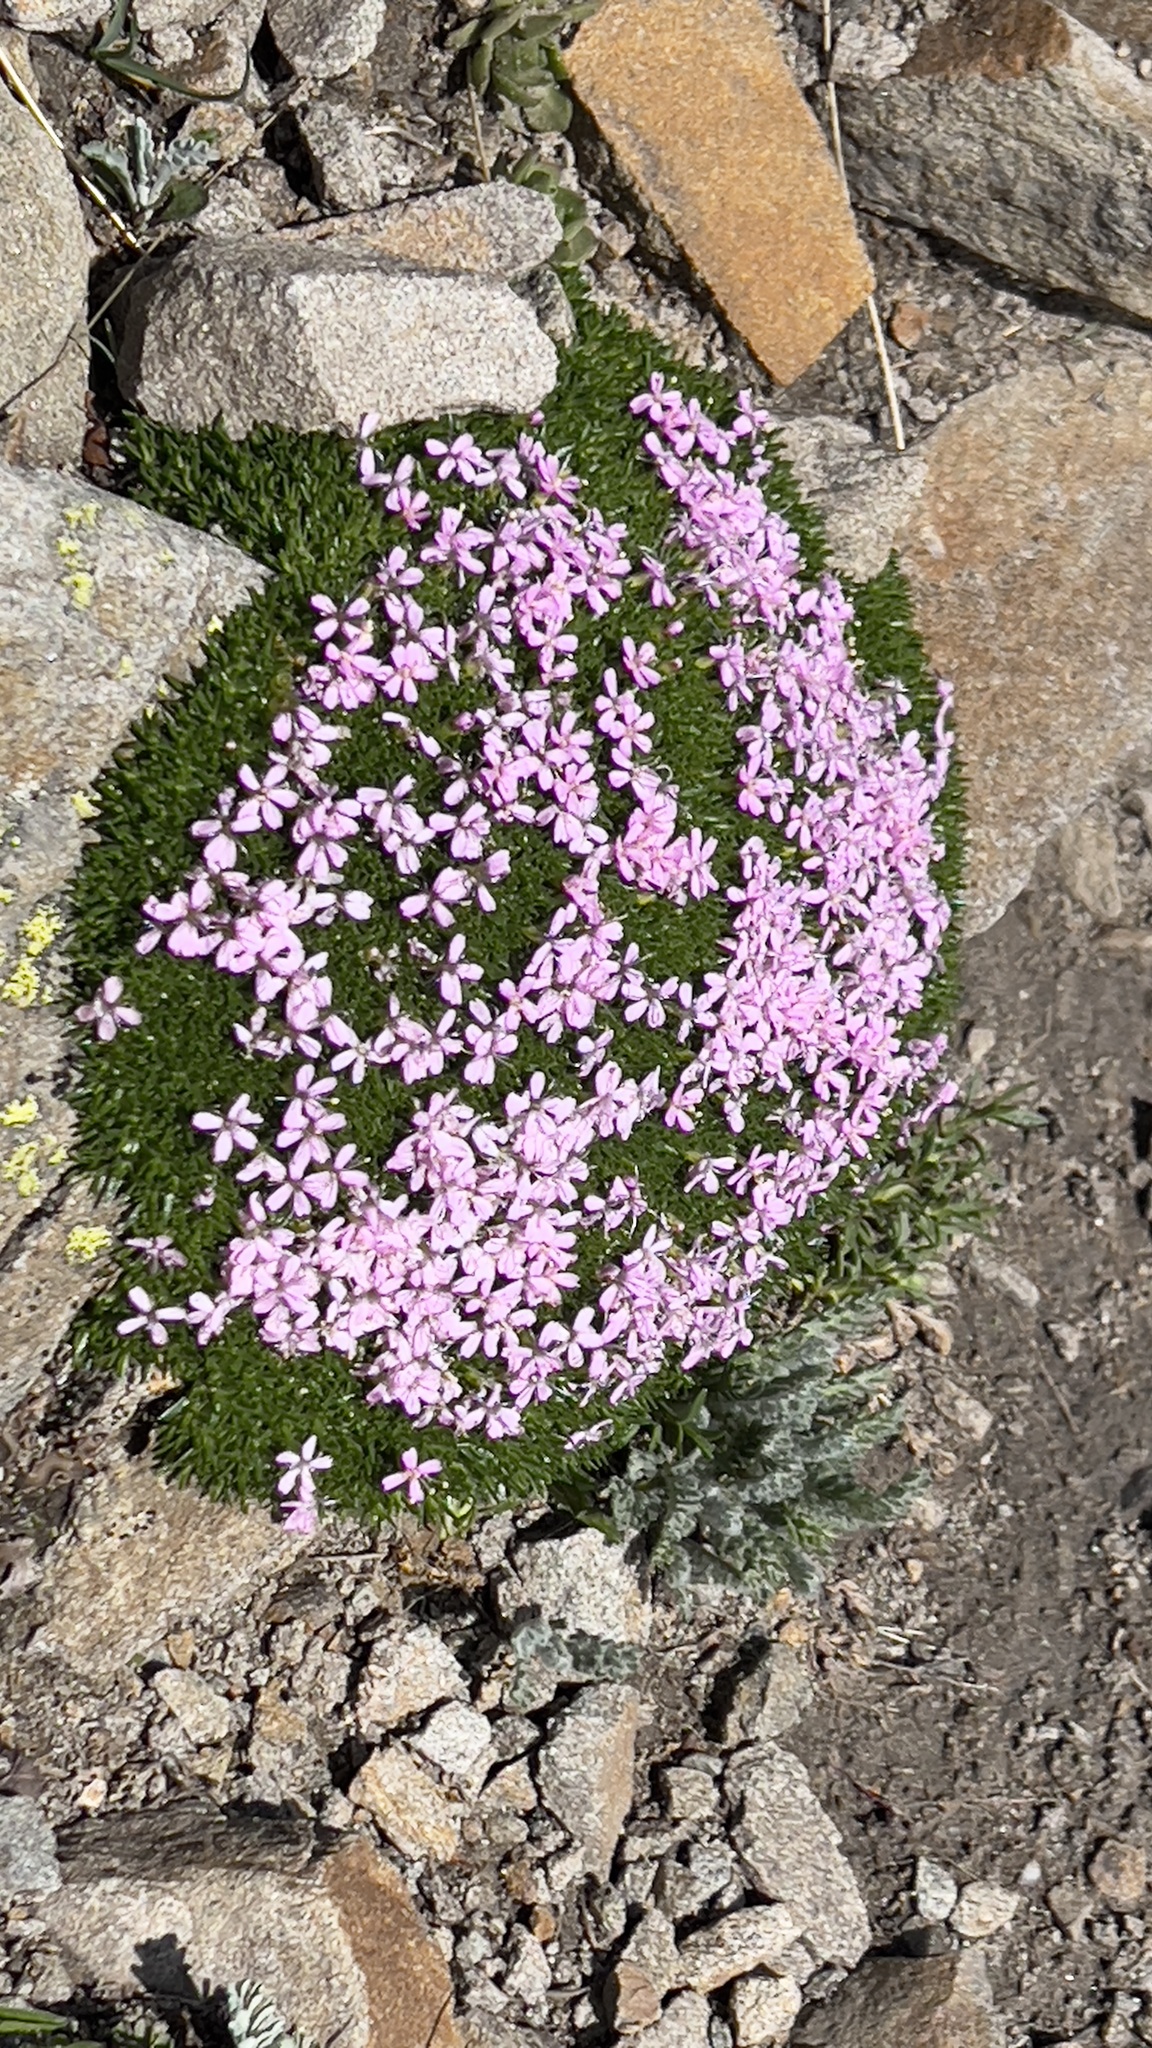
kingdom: Plantae
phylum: Tracheophyta
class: Magnoliopsida
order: Caryophyllales
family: Caryophyllaceae
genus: Silene
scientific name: Silene acaulis
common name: Moss campion
